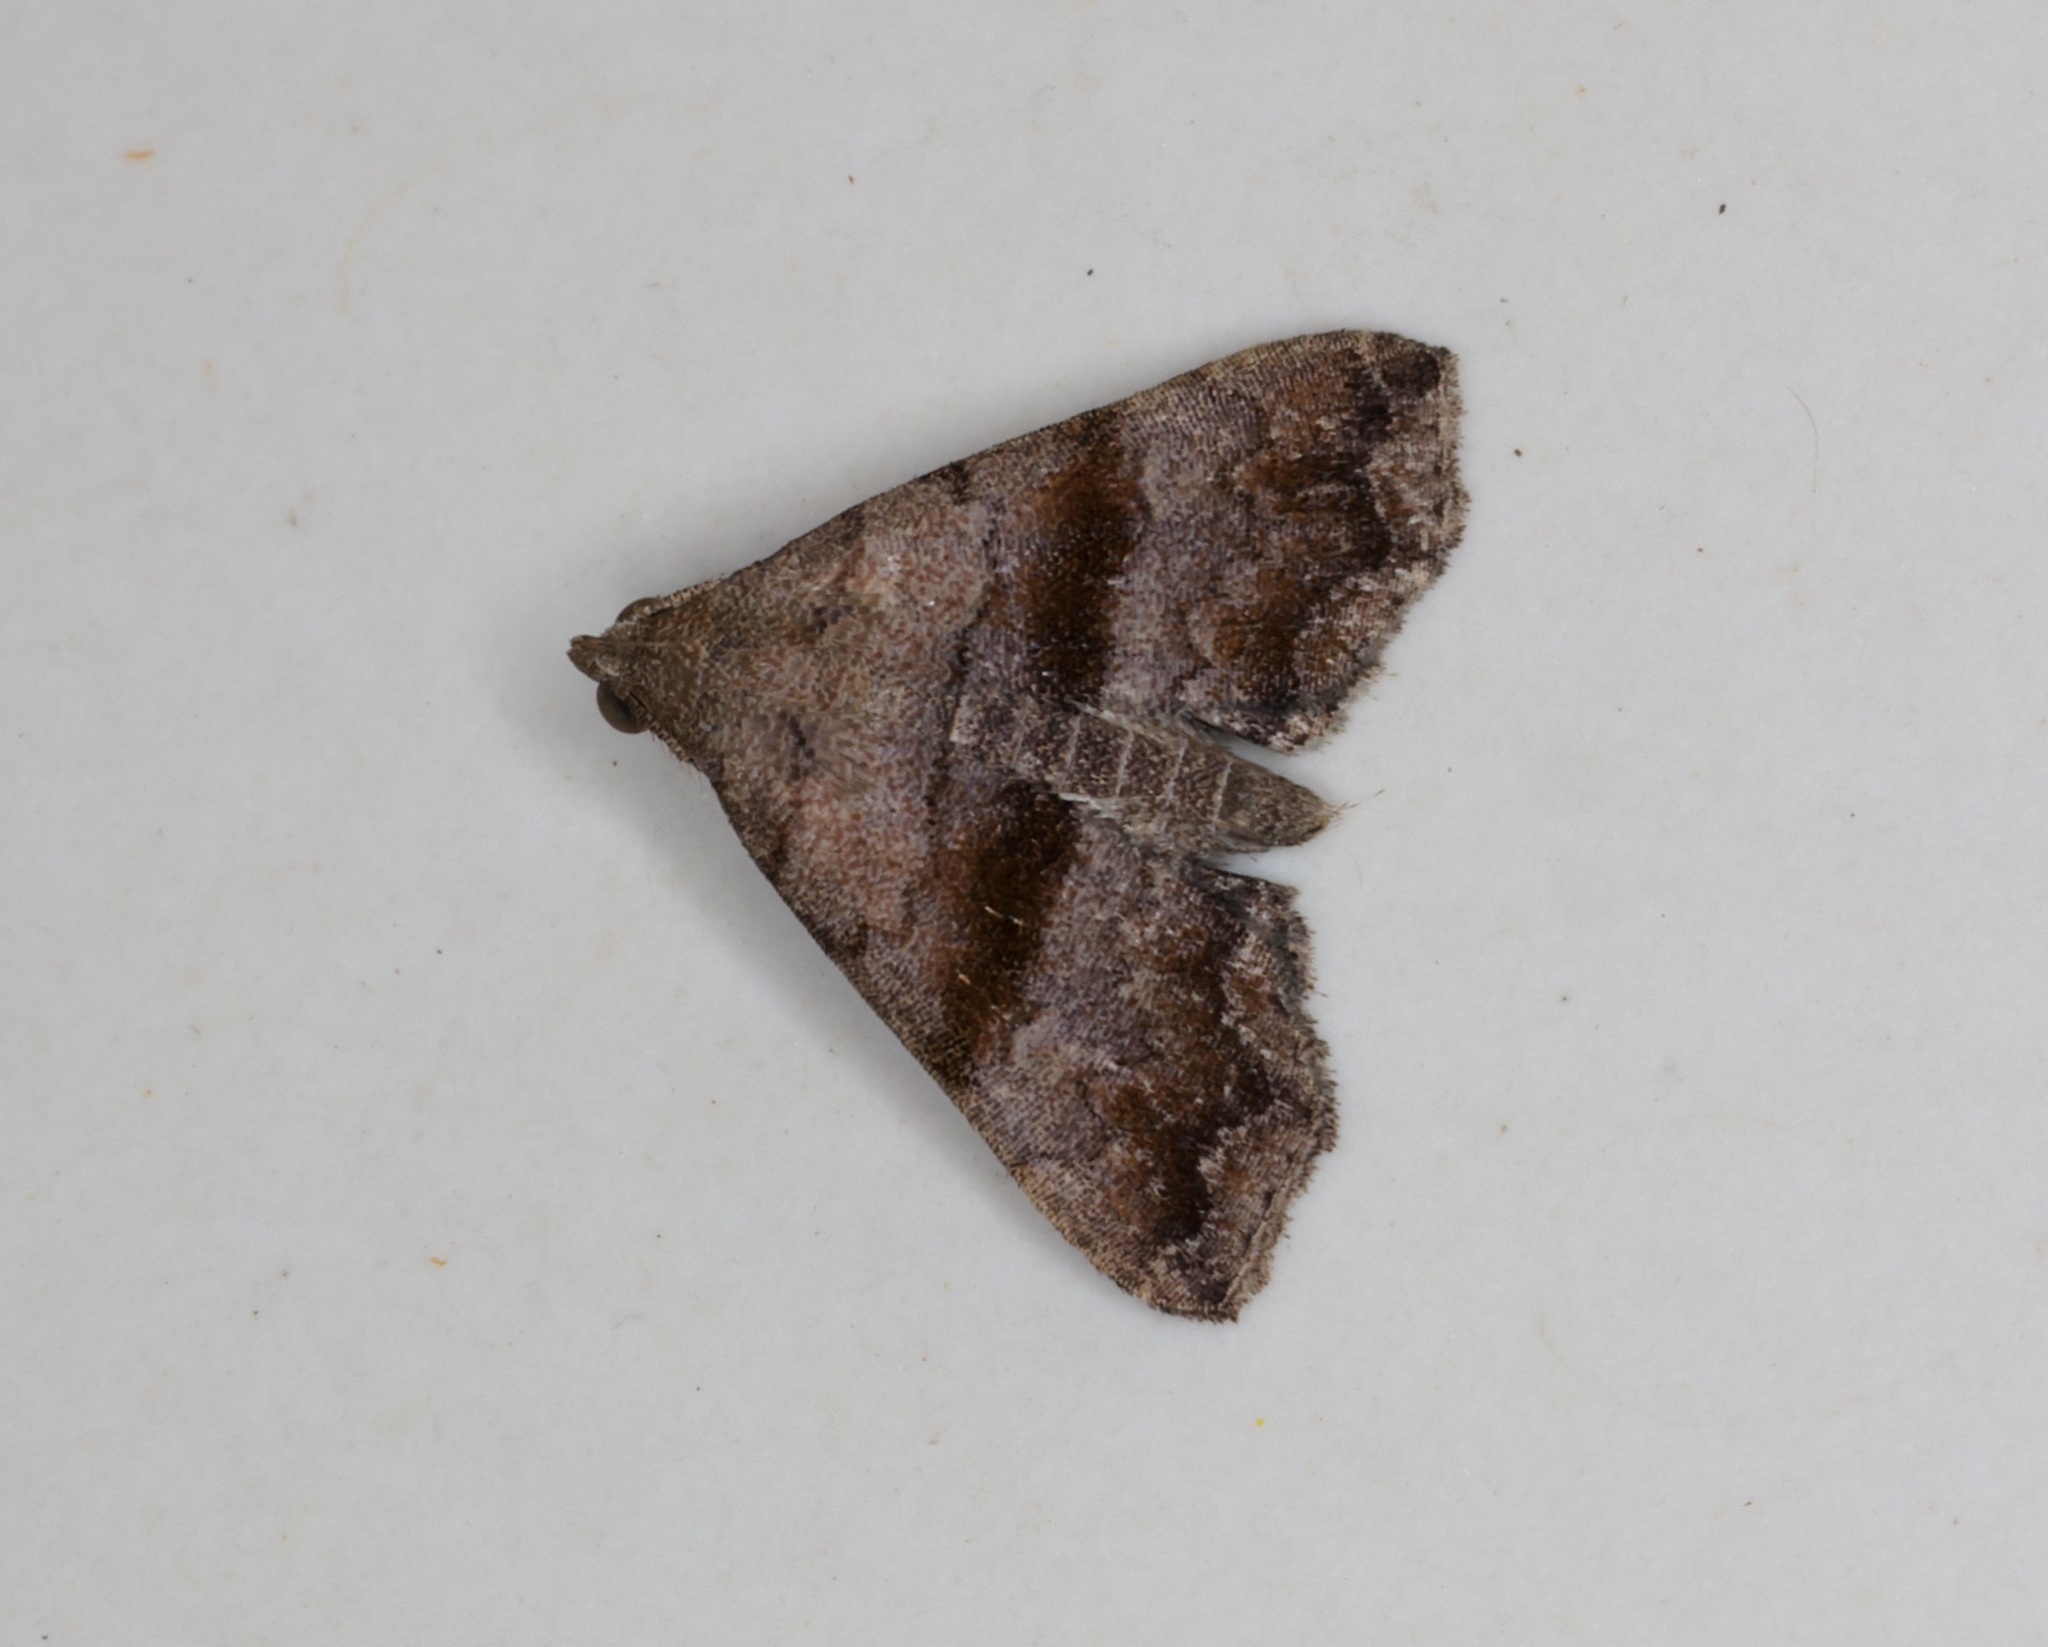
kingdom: Animalia
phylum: Arthropoda
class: Insecta
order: Lepidoptera
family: Erebidae
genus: Polypogon
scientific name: Polypogon Hipoepa fractalis
